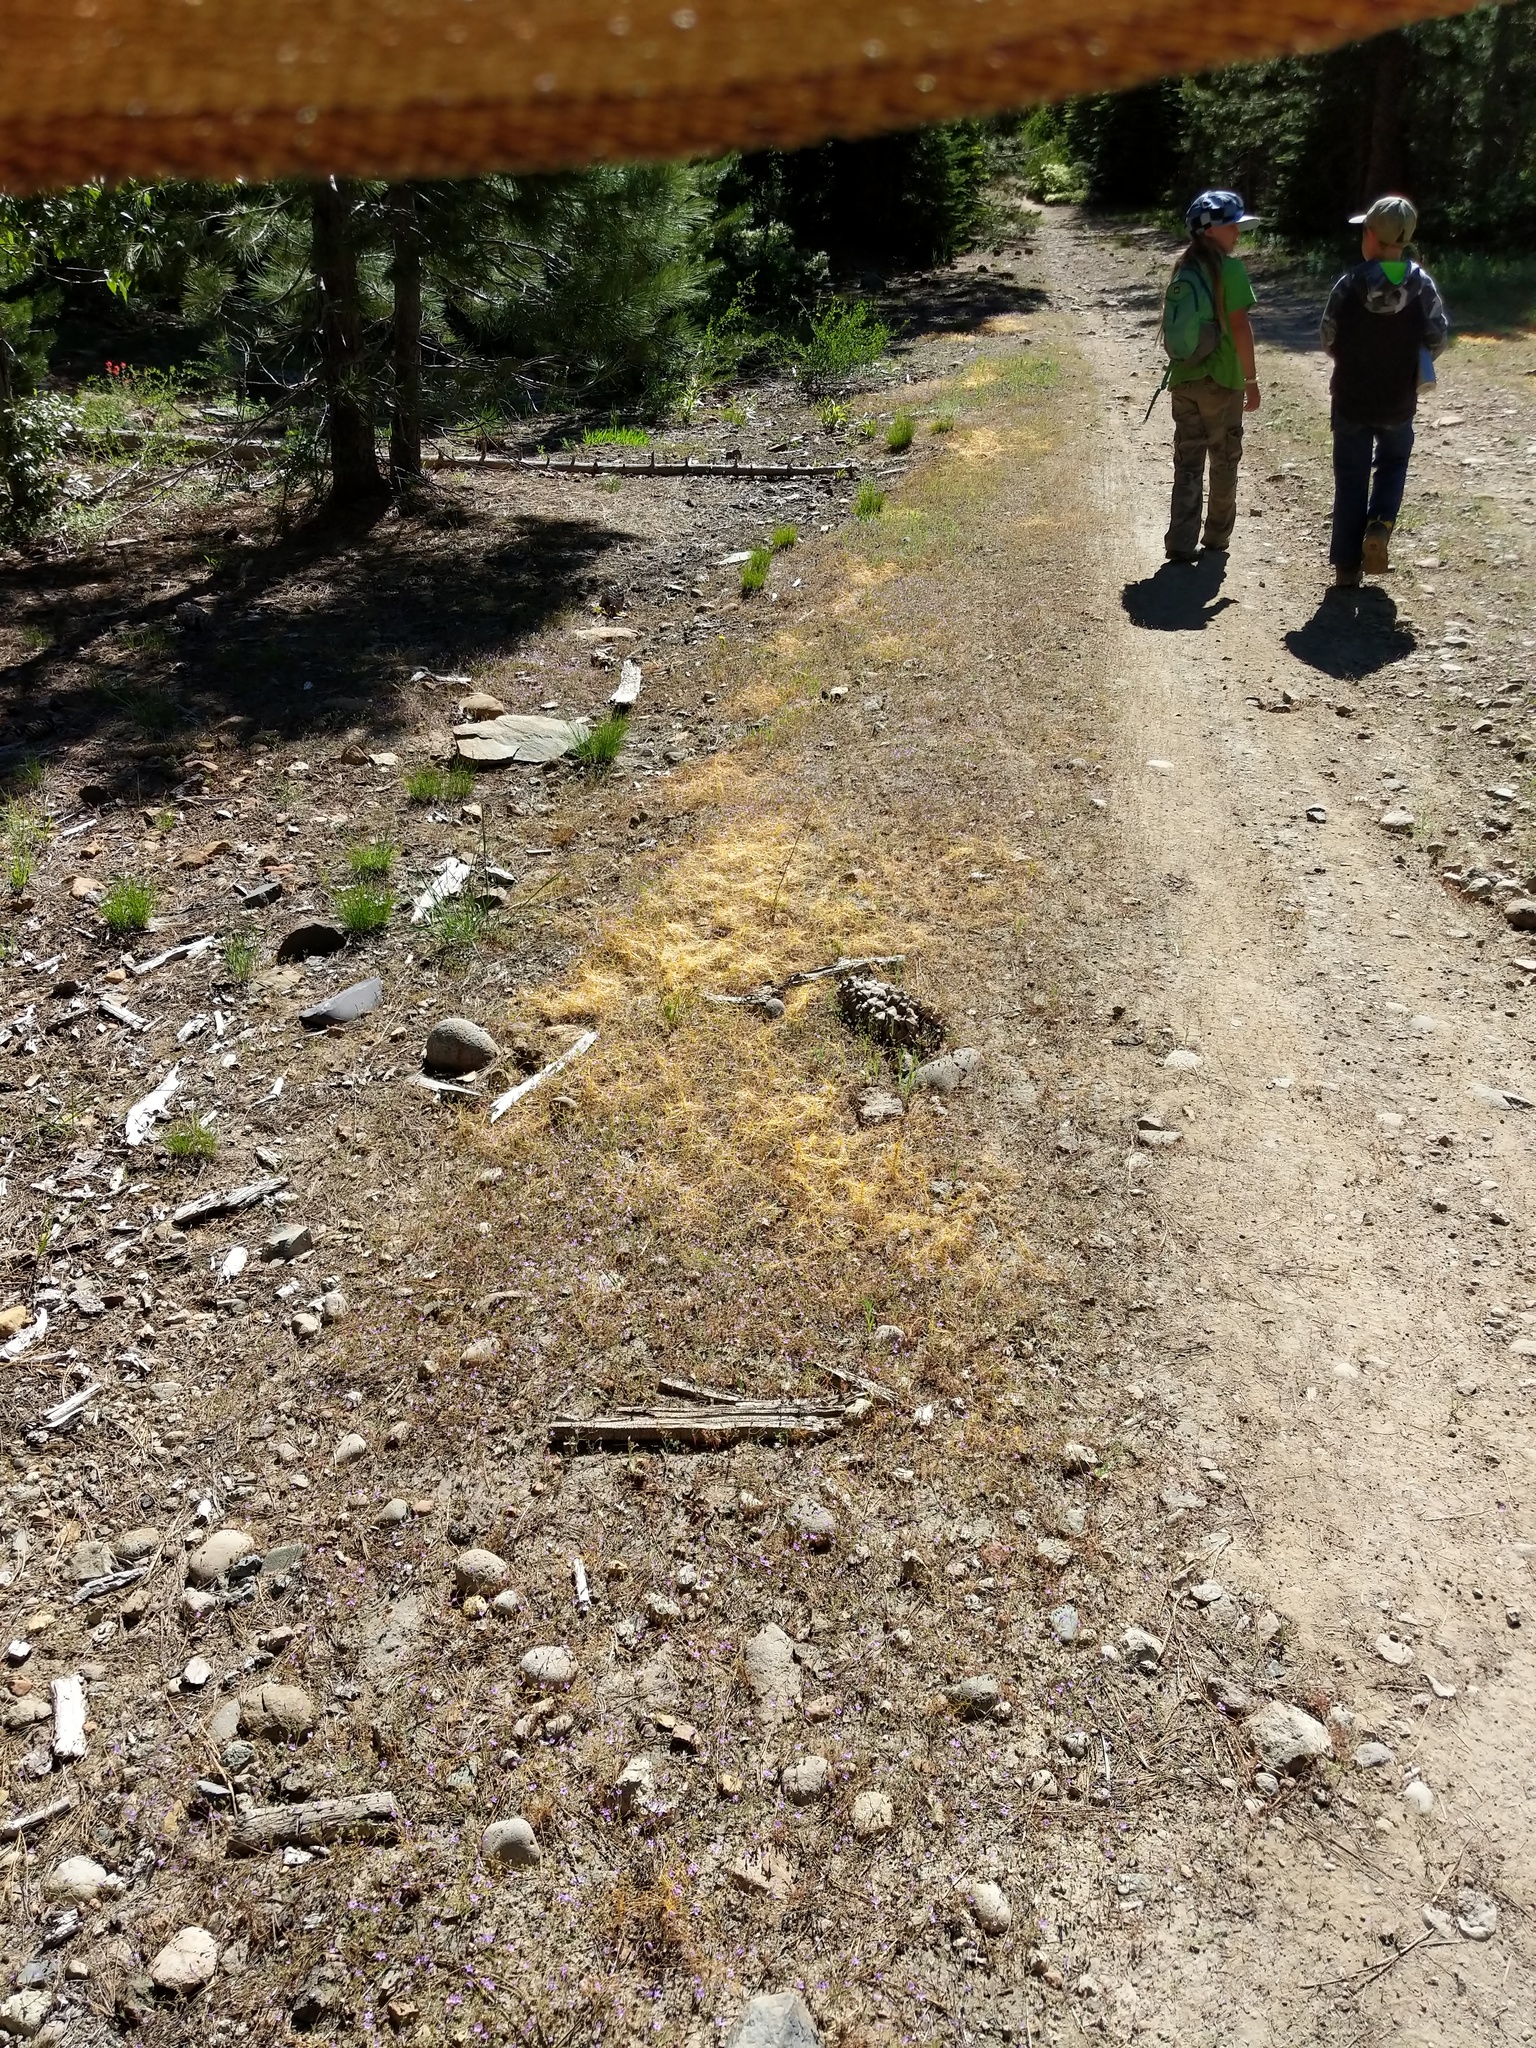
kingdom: Plantae
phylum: Tracheophyta
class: Magnoliopsida
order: Solanales
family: Convolvulaceae
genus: Cuscuta
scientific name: Cuscuta californica
